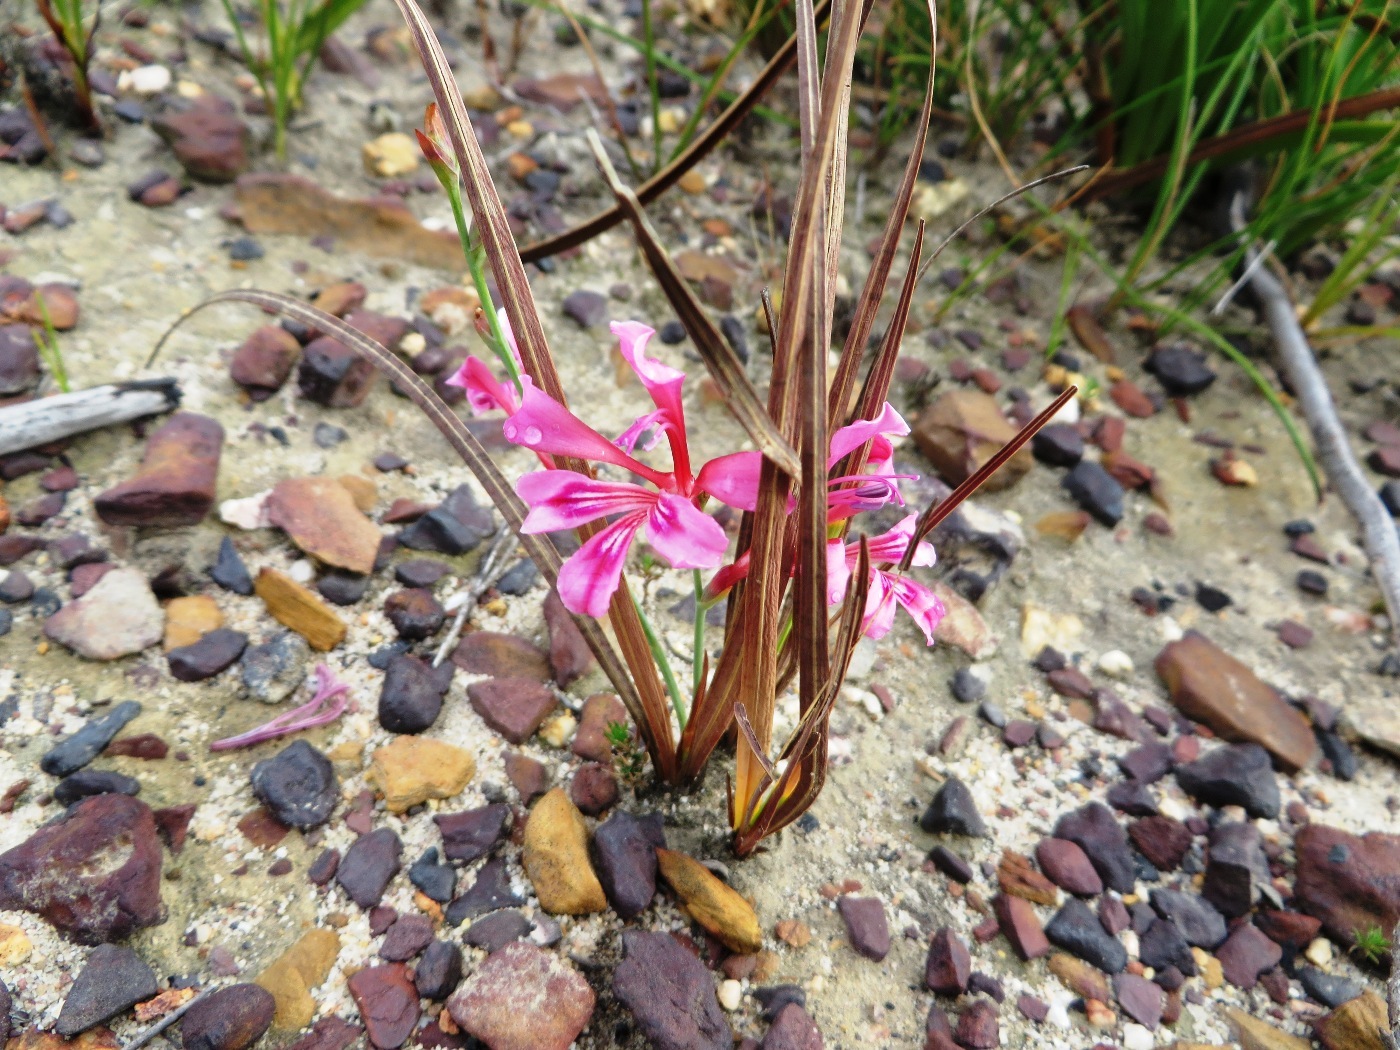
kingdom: Plantae
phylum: Tracheophyta
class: Liliopsida
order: Asparagales
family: Iridaceae
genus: Tritoniopsis
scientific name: Tritoniopsis ramosa
